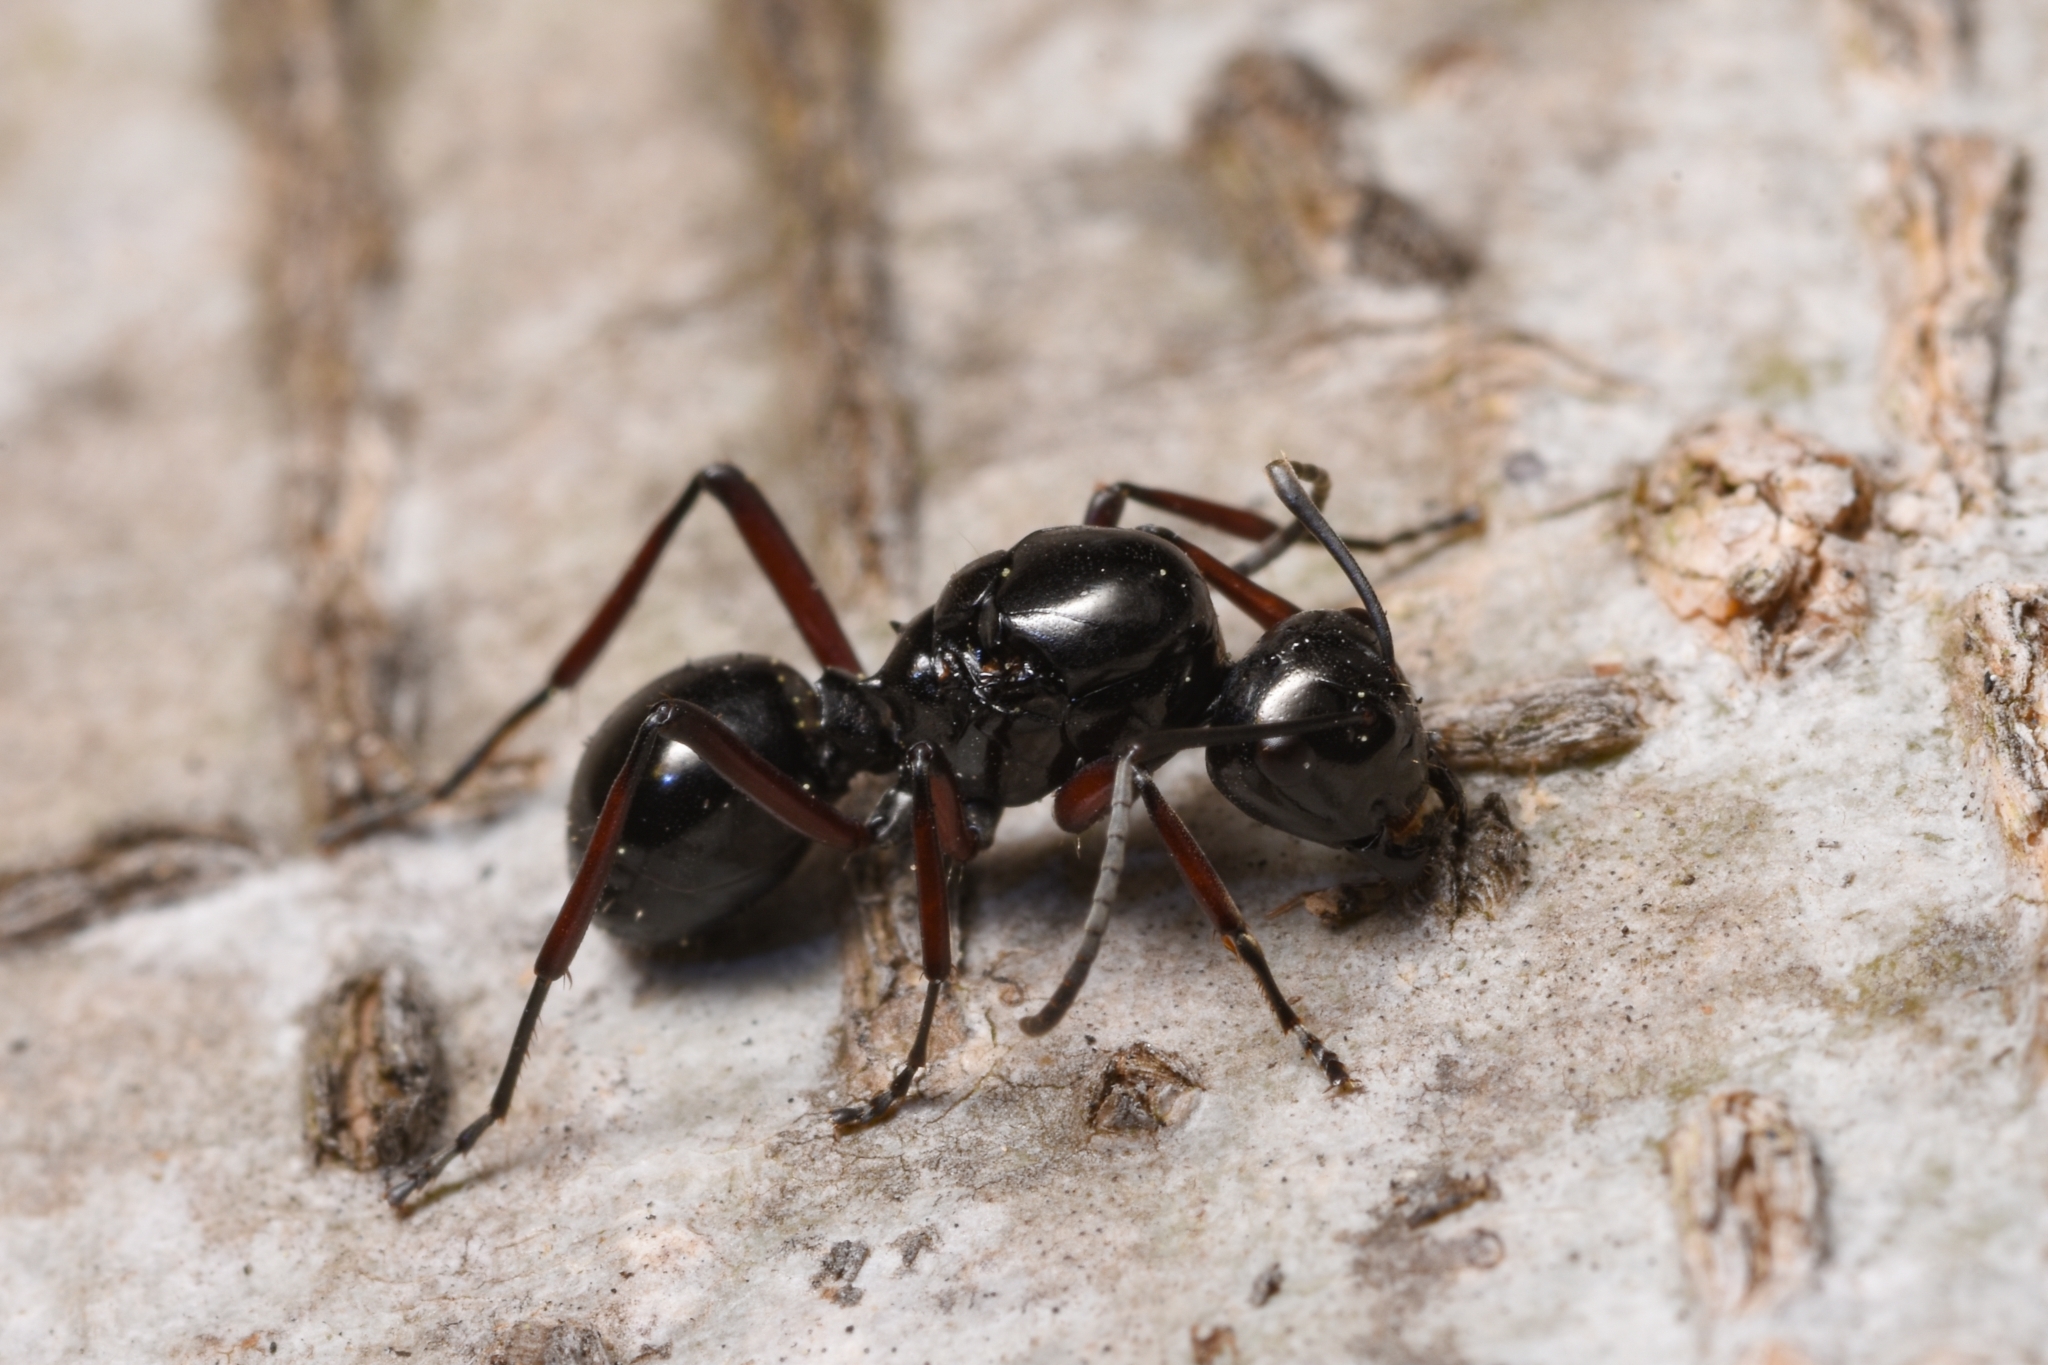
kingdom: Animalia
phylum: Arthropoda
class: Insecta
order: Hymenoptera
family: Formicidae
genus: Polyrhachis
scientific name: Polyrhachis australis
